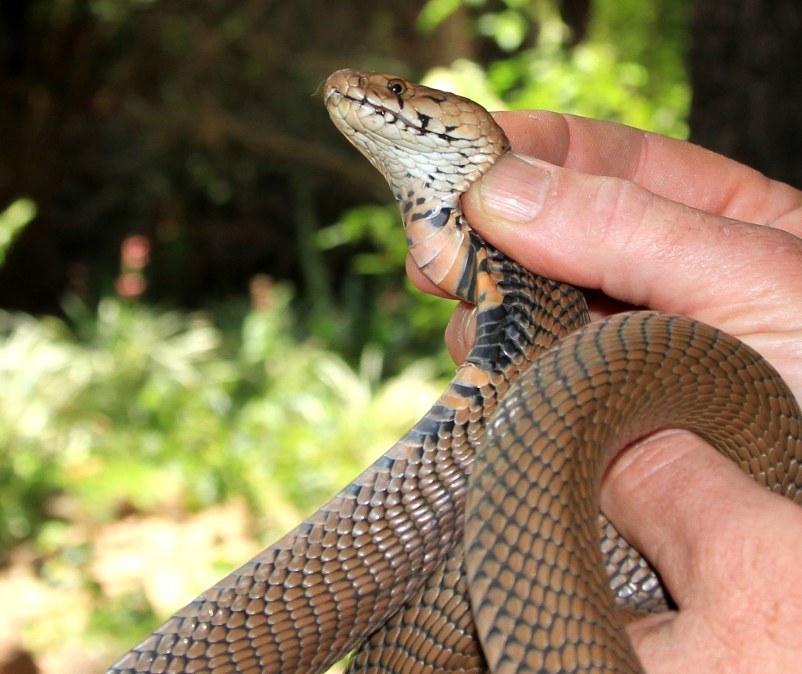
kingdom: Animalia
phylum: Chordata
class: Squamata
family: Elapidae
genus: Naja
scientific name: Naja mossambica
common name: Mozambique spitting cobra
